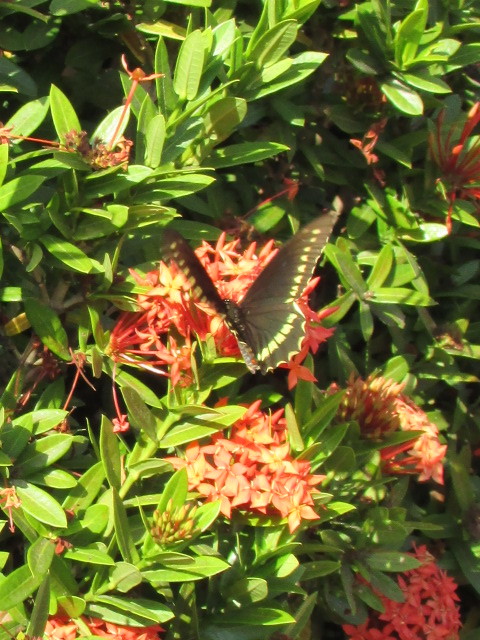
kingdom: Animalia
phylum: Arthropoda
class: Insecta
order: Lepidoptera
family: Papilionidae
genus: Battus
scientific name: Battus polydamas
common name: Polydamas swallowtail
